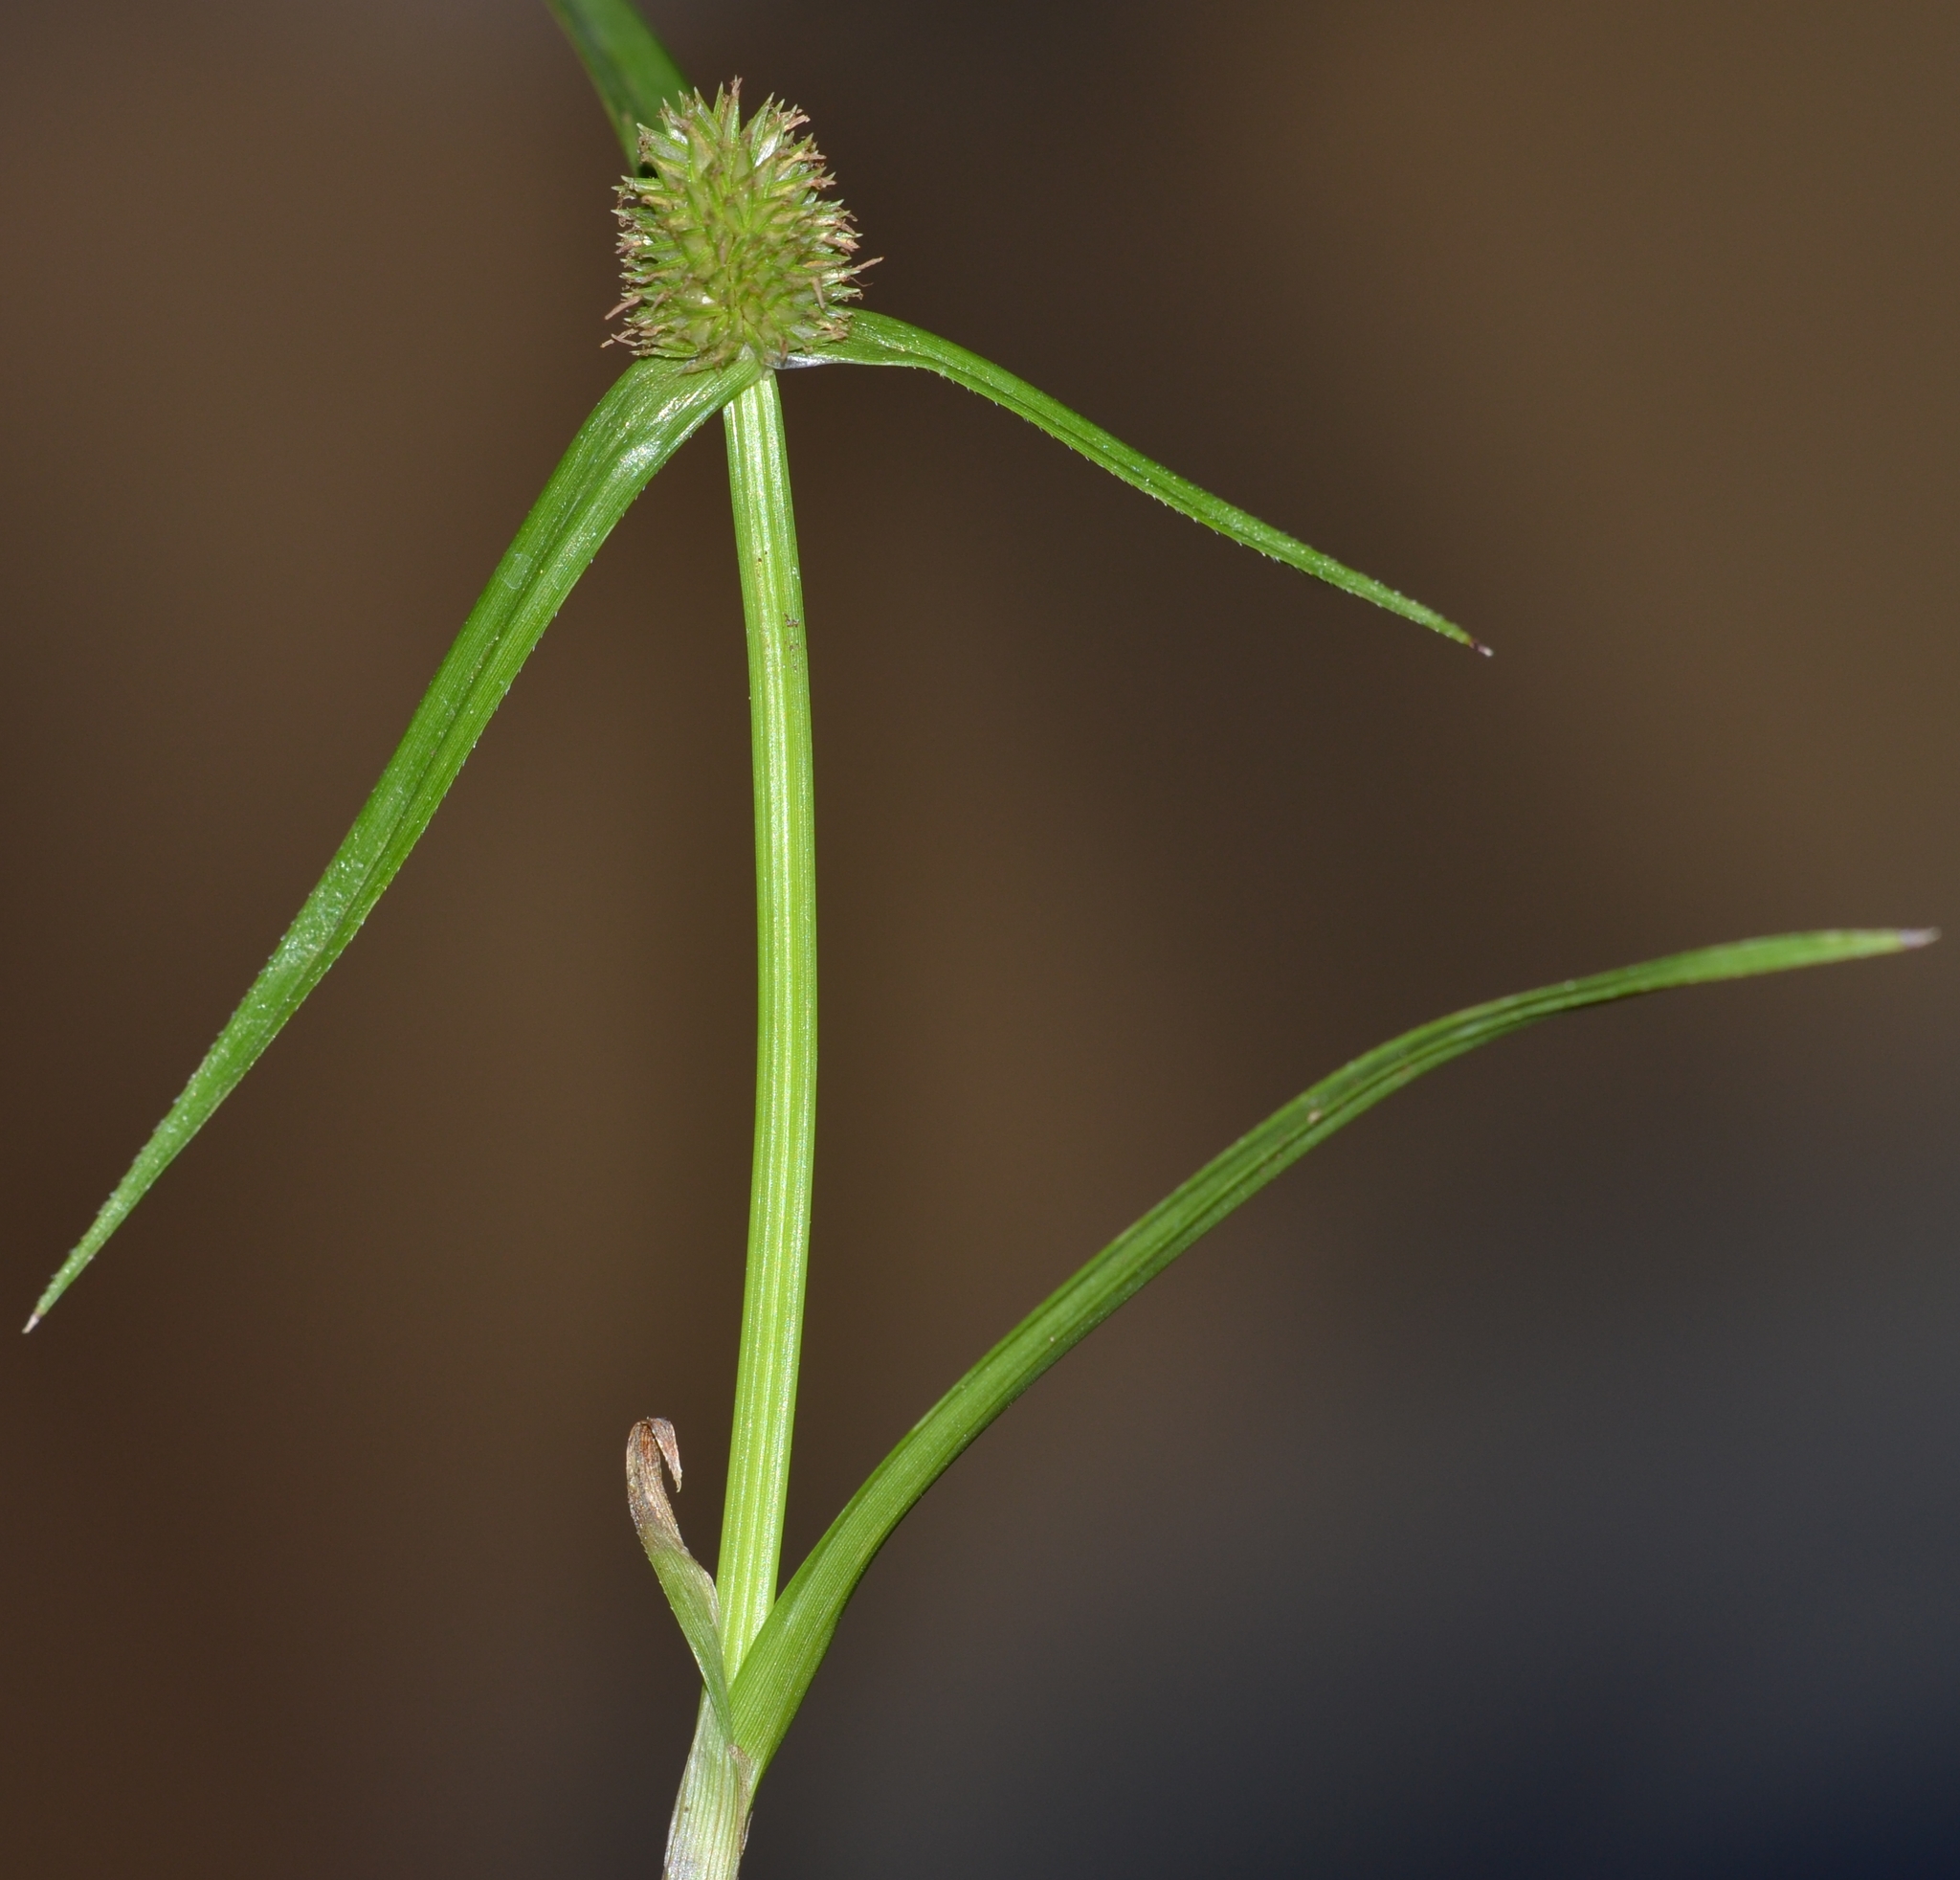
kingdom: Plantae
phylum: Tracheophyta
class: Liliopsida
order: Poales
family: Cyperaceae
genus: Cyperus
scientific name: Cyperus brevifolius
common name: Globe kyllinga
